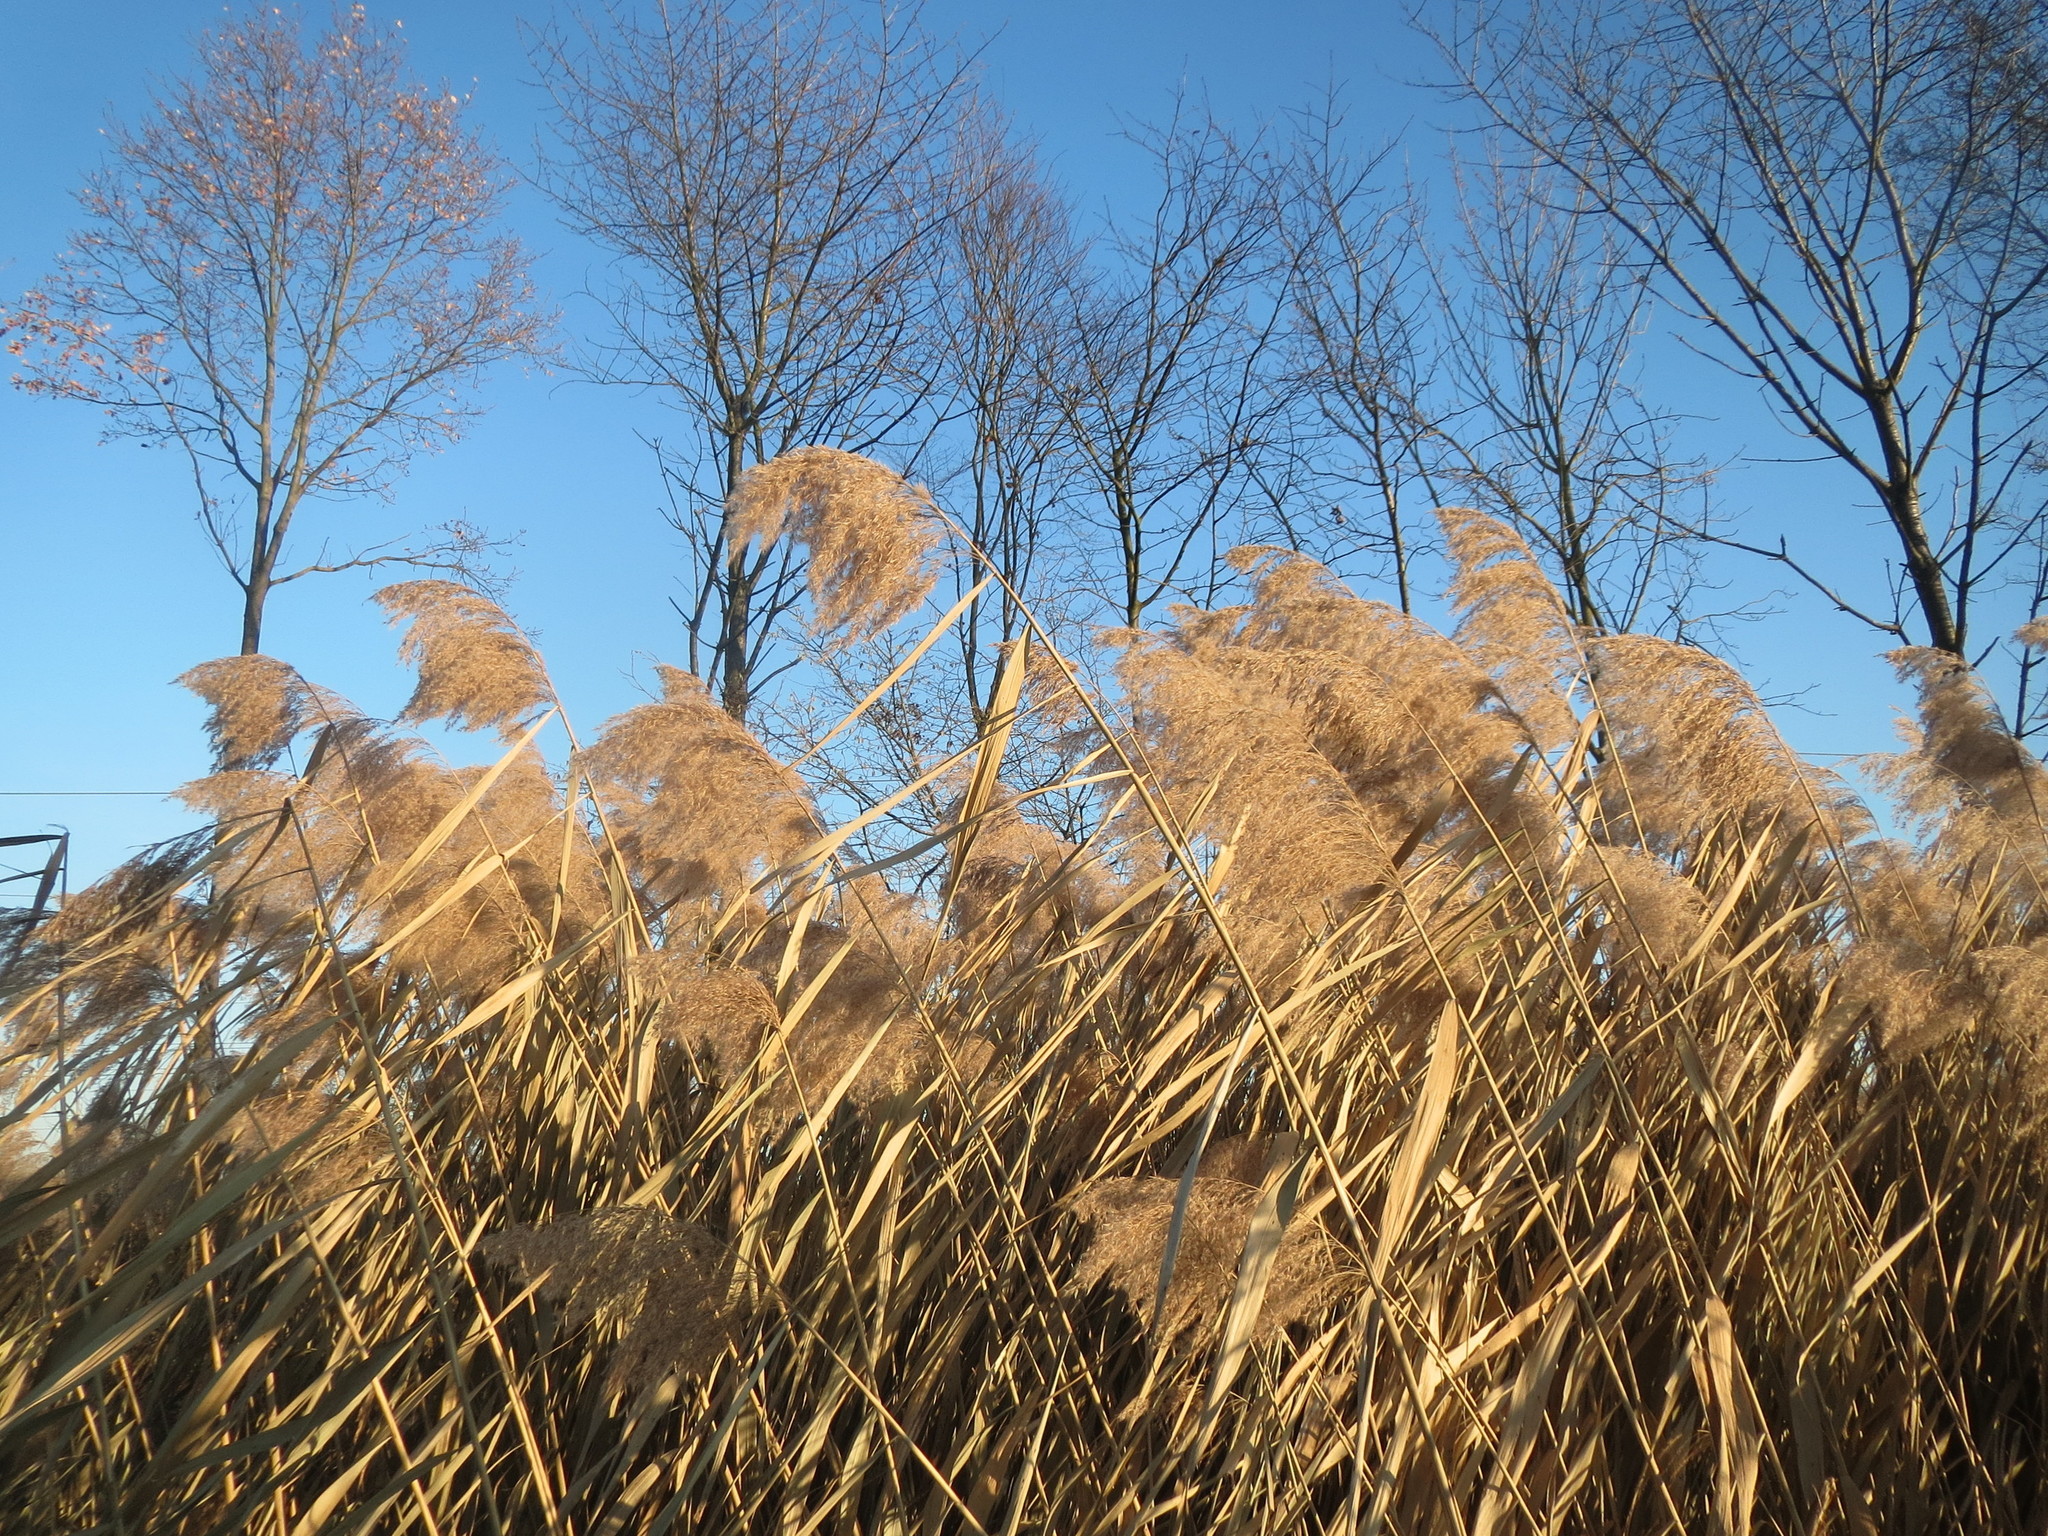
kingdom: Plantae
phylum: Tracheophyta
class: Liliopsida
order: Poales
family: Poaceae
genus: Phragmites
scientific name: Phragmites australis
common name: Common reed
